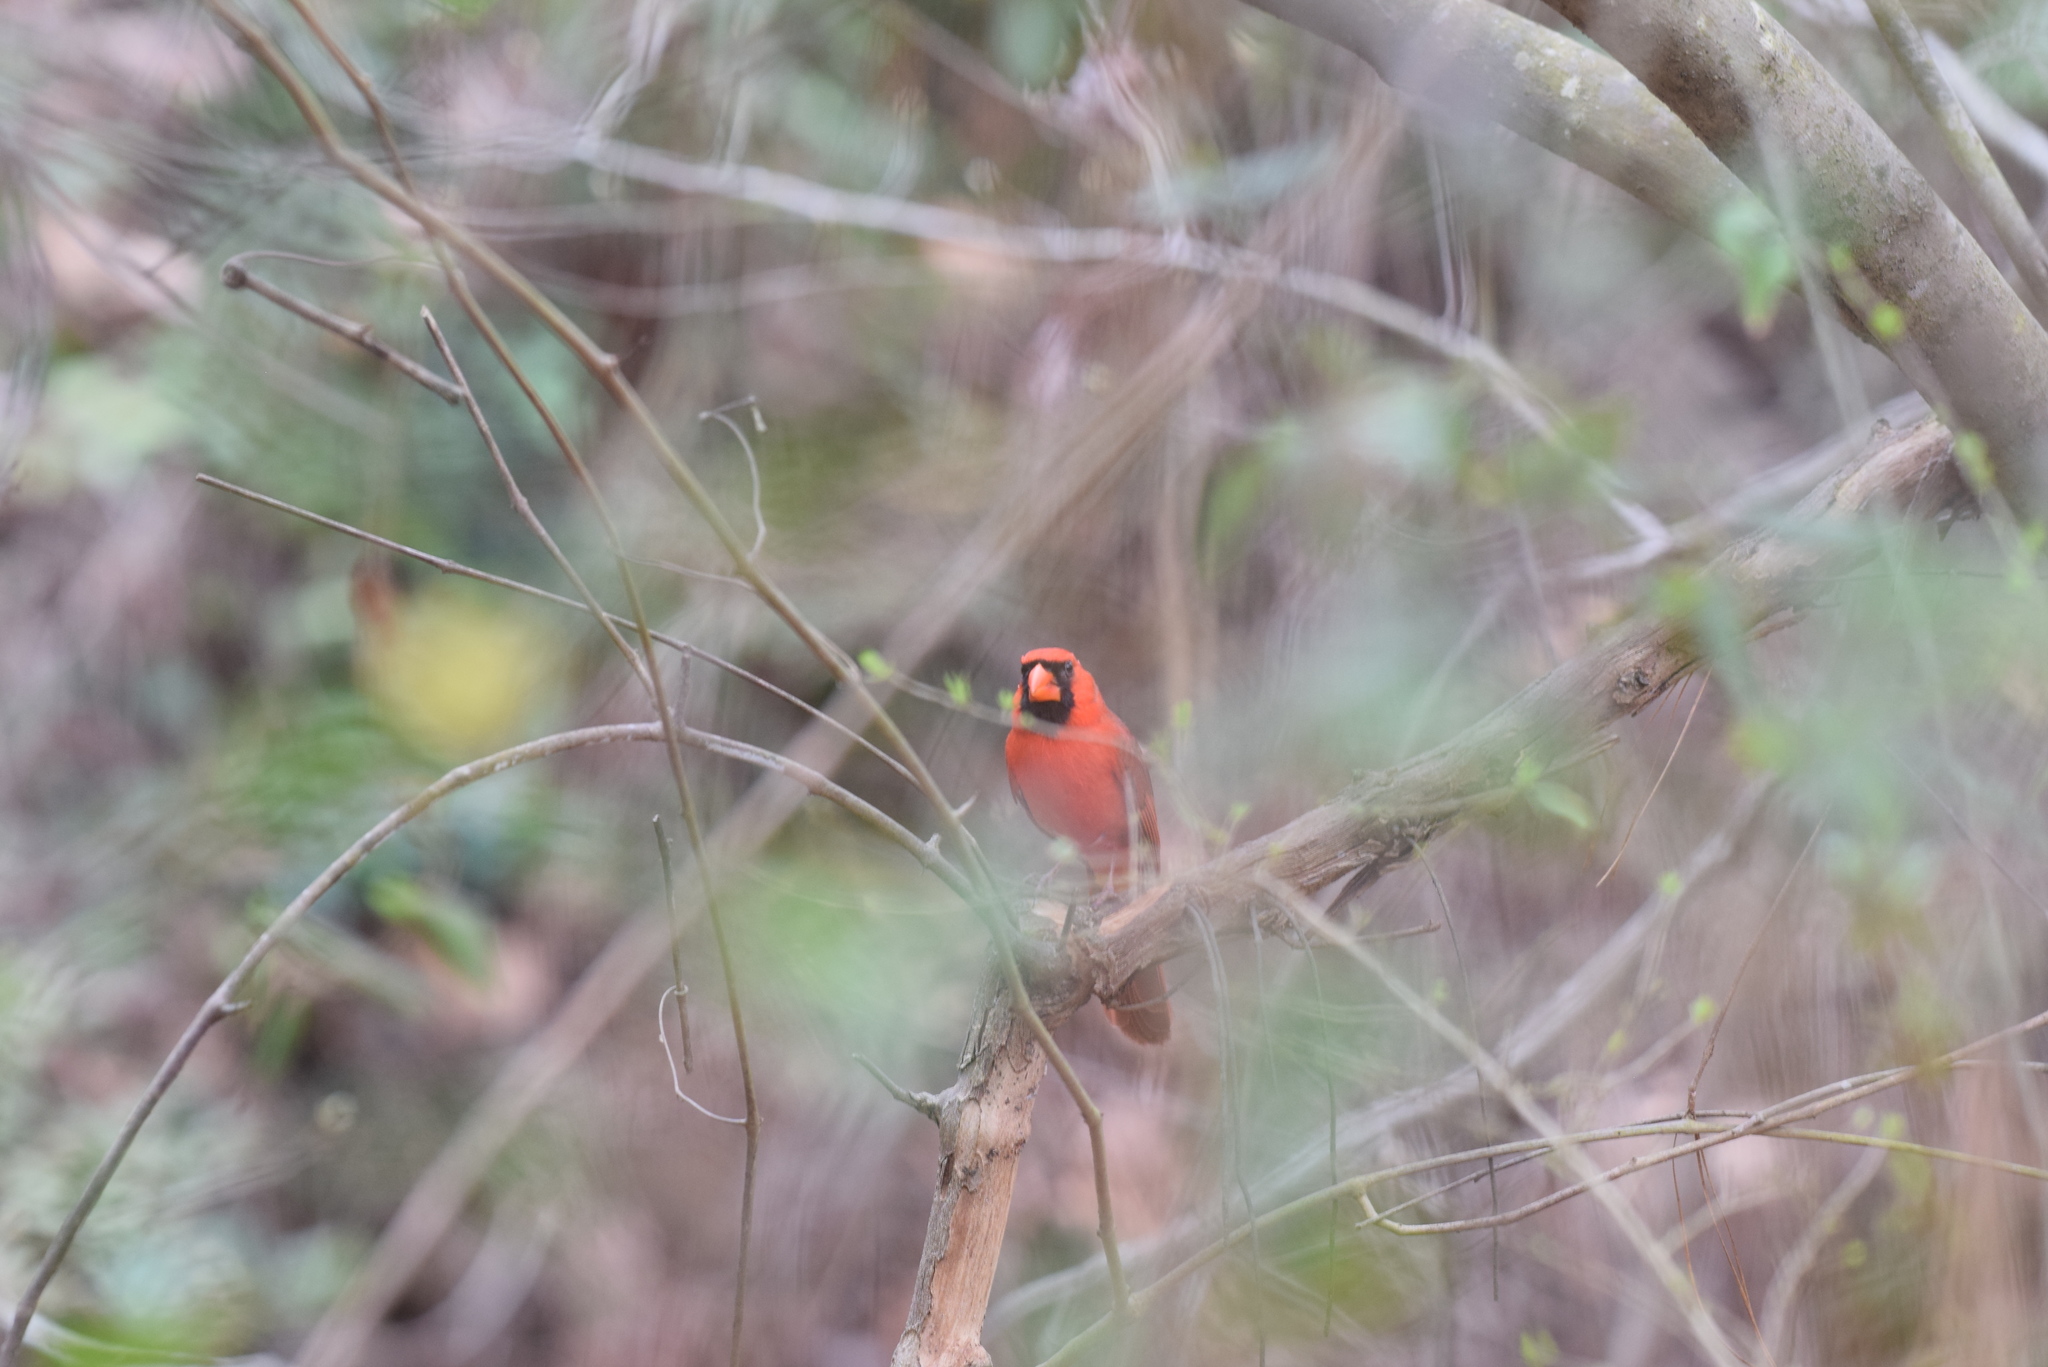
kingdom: Animalia
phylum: Chordata
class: Aves
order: Passeriformes
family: Cardinalidae
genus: Cardinalis
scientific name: Cardinalis cardinalis
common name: Northern cardinal
